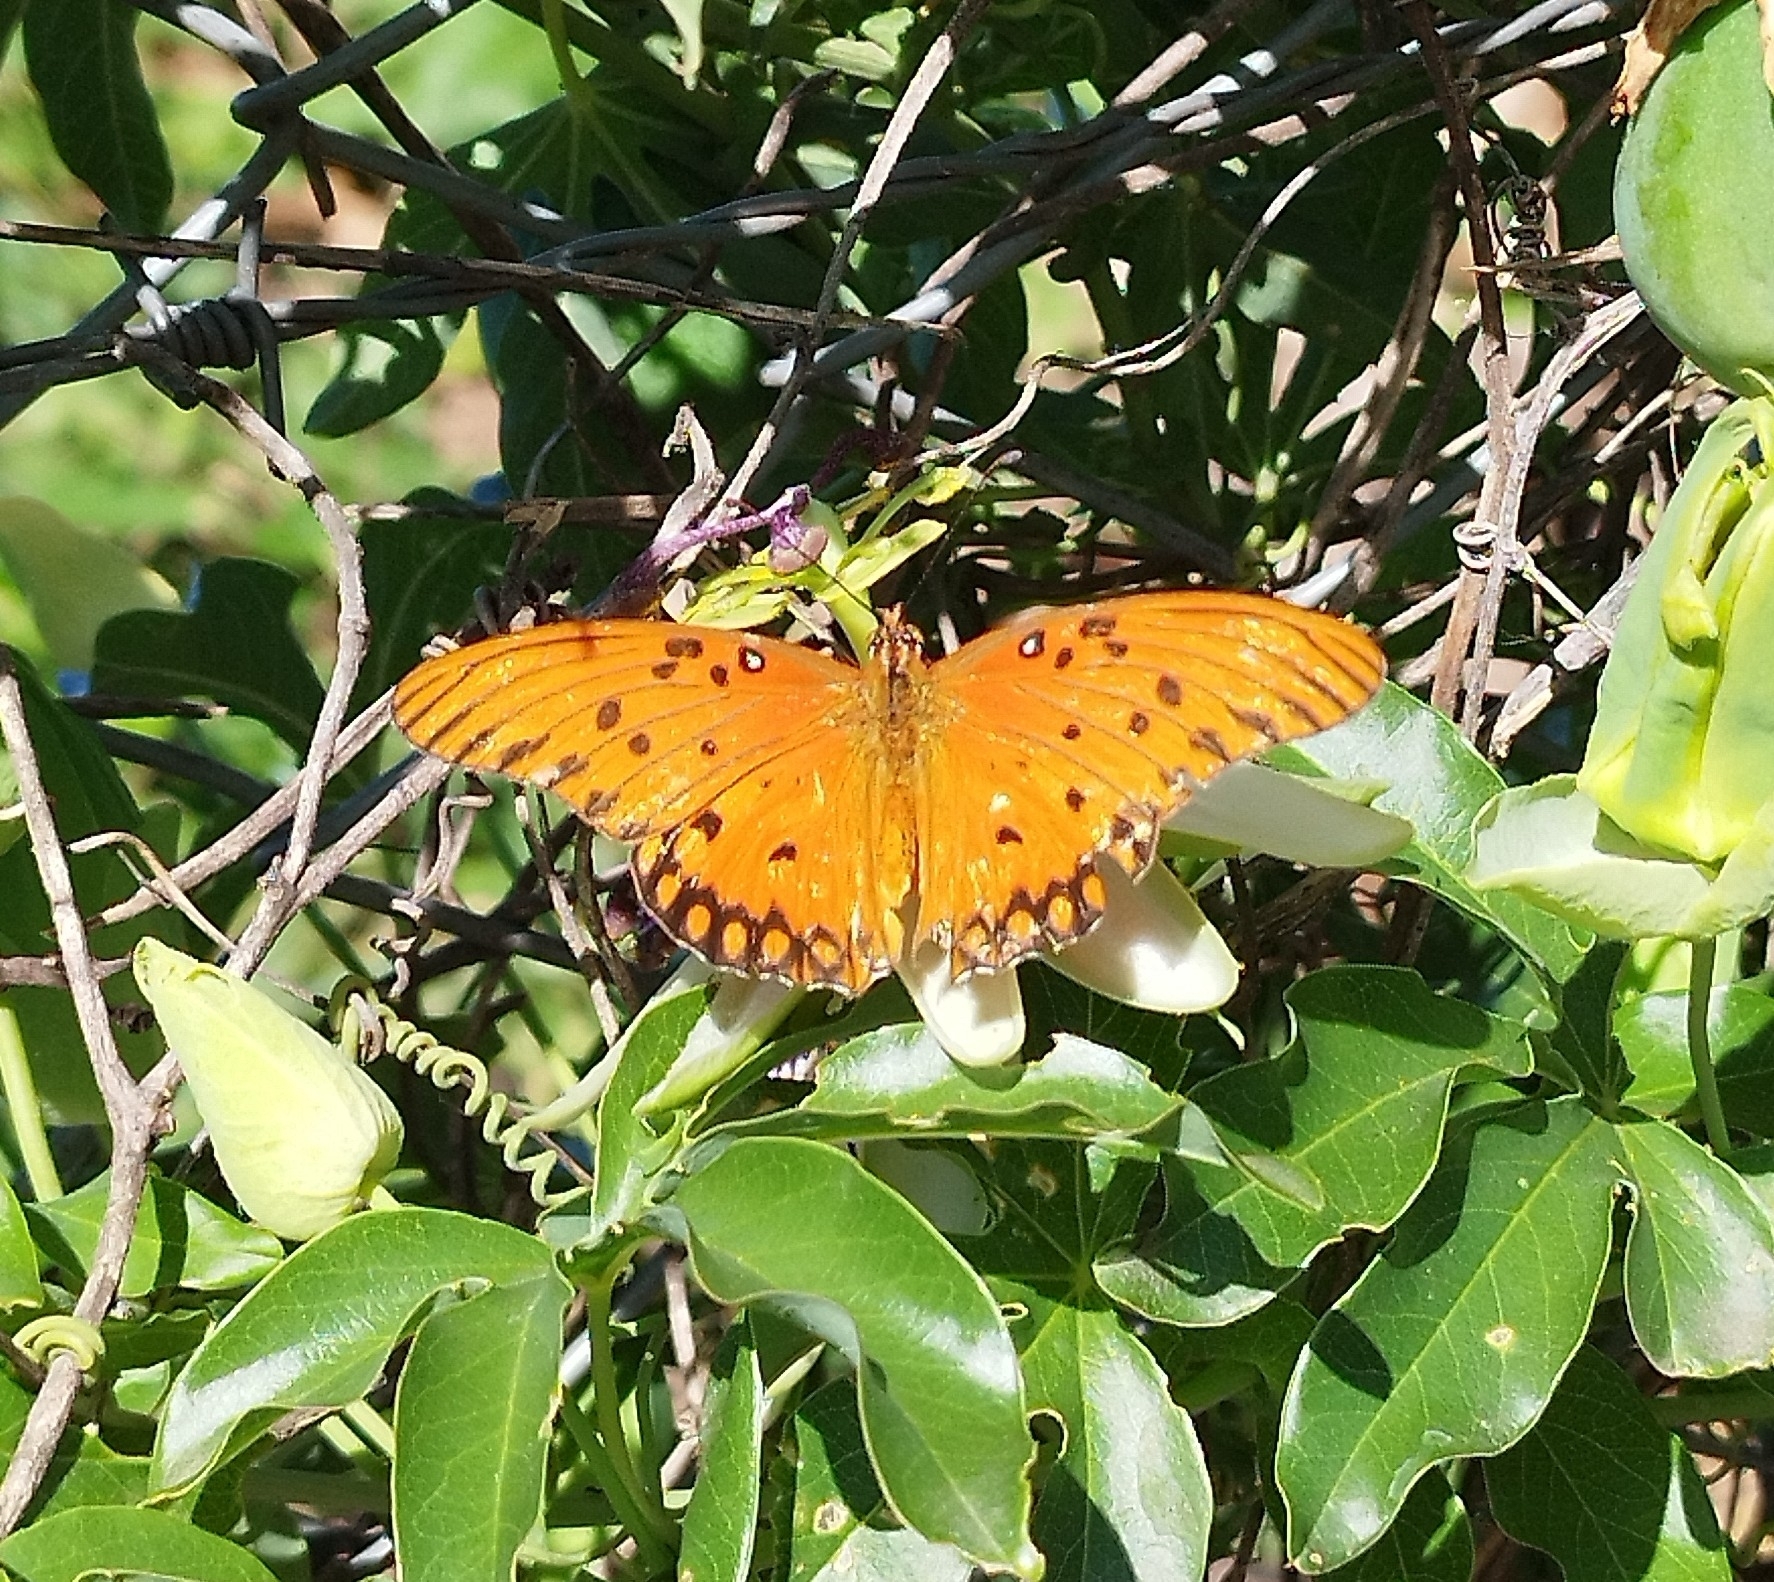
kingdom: Animalia
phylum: Arthropoda
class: Insecta
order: Lepidoptera
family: Nymphalidae
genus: Dione
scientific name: Dione vanillae
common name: Gulf fritillary
